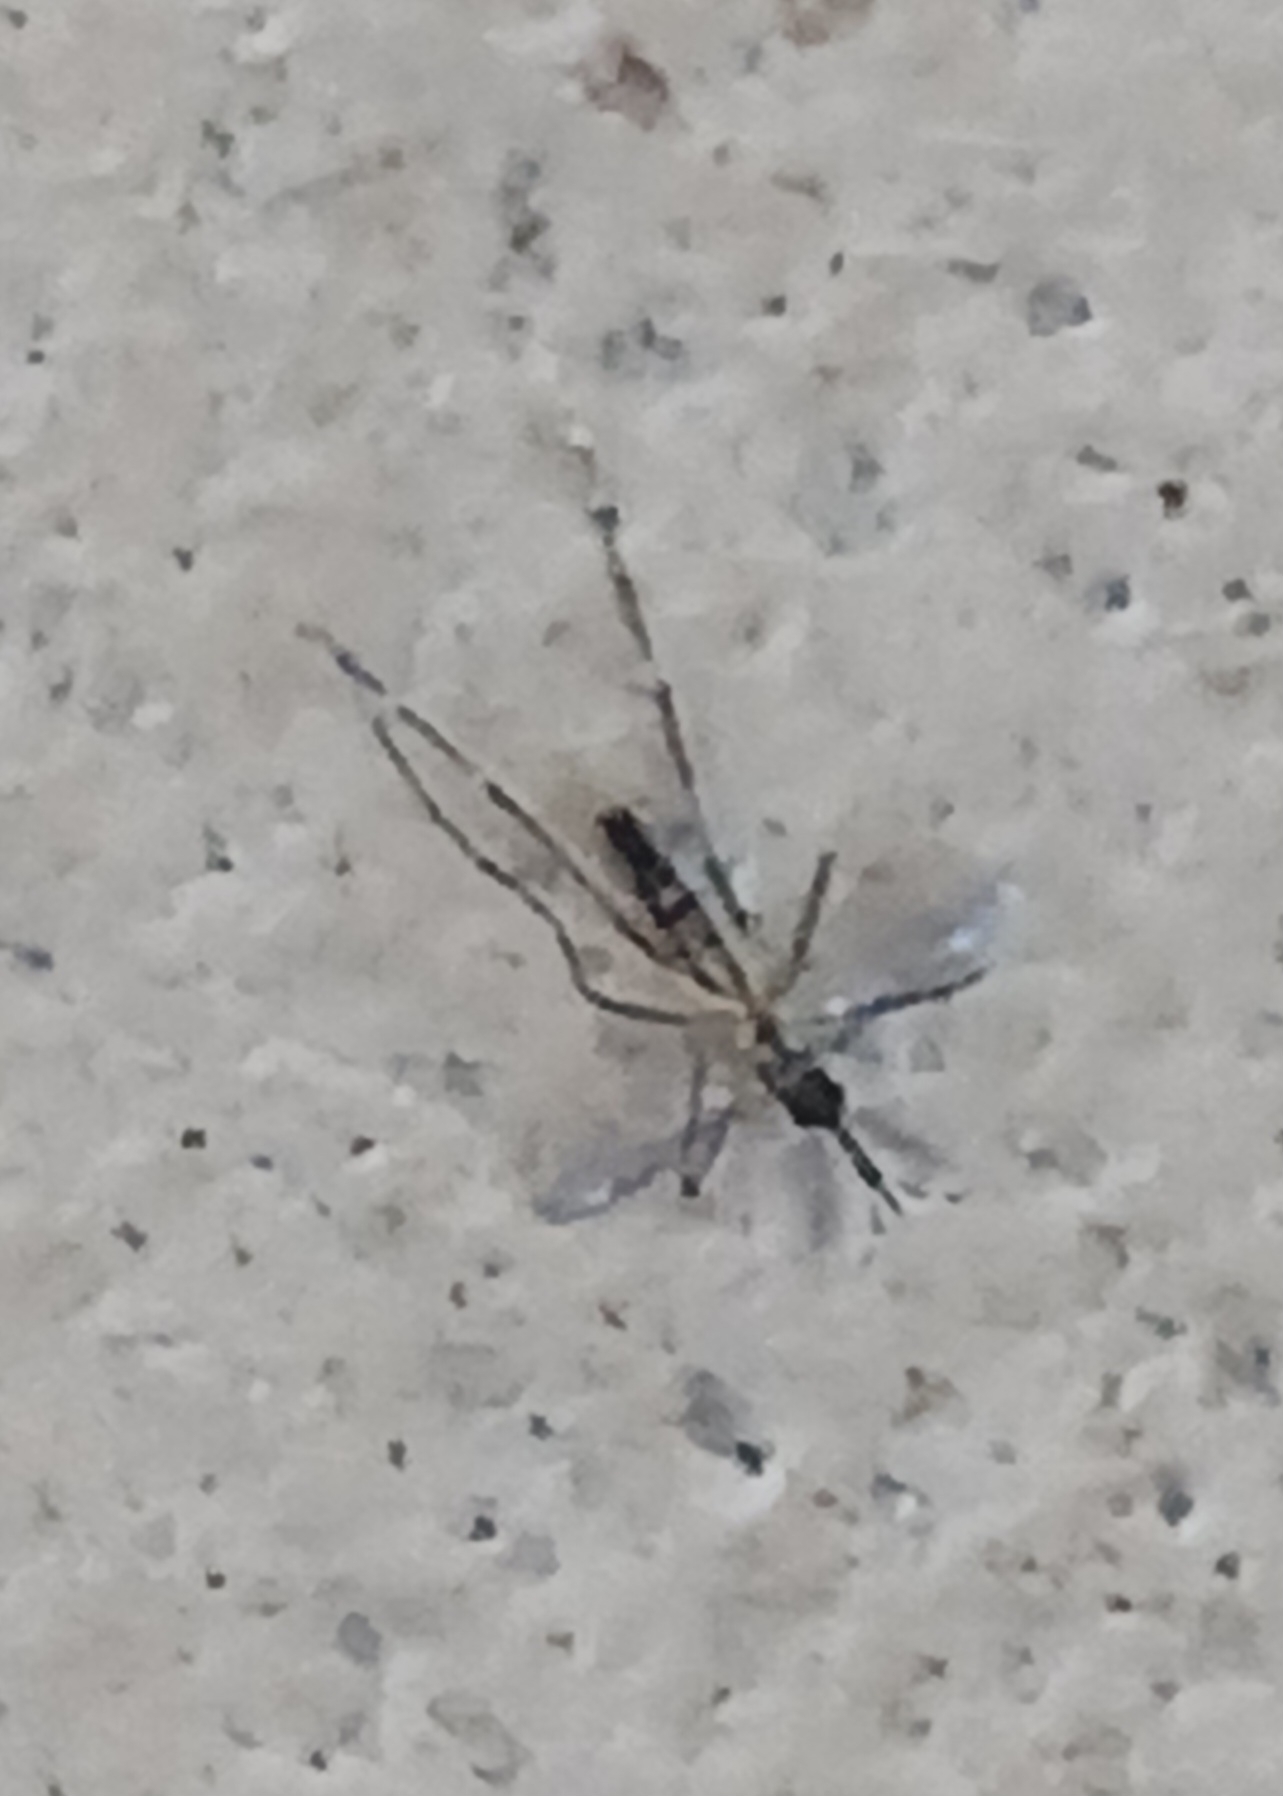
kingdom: Animalia
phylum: Arthropoda
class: Insecta
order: Diptera
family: Culicidae
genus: Aedes
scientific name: Aedes aegypti
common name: Yellow fever mosquito
